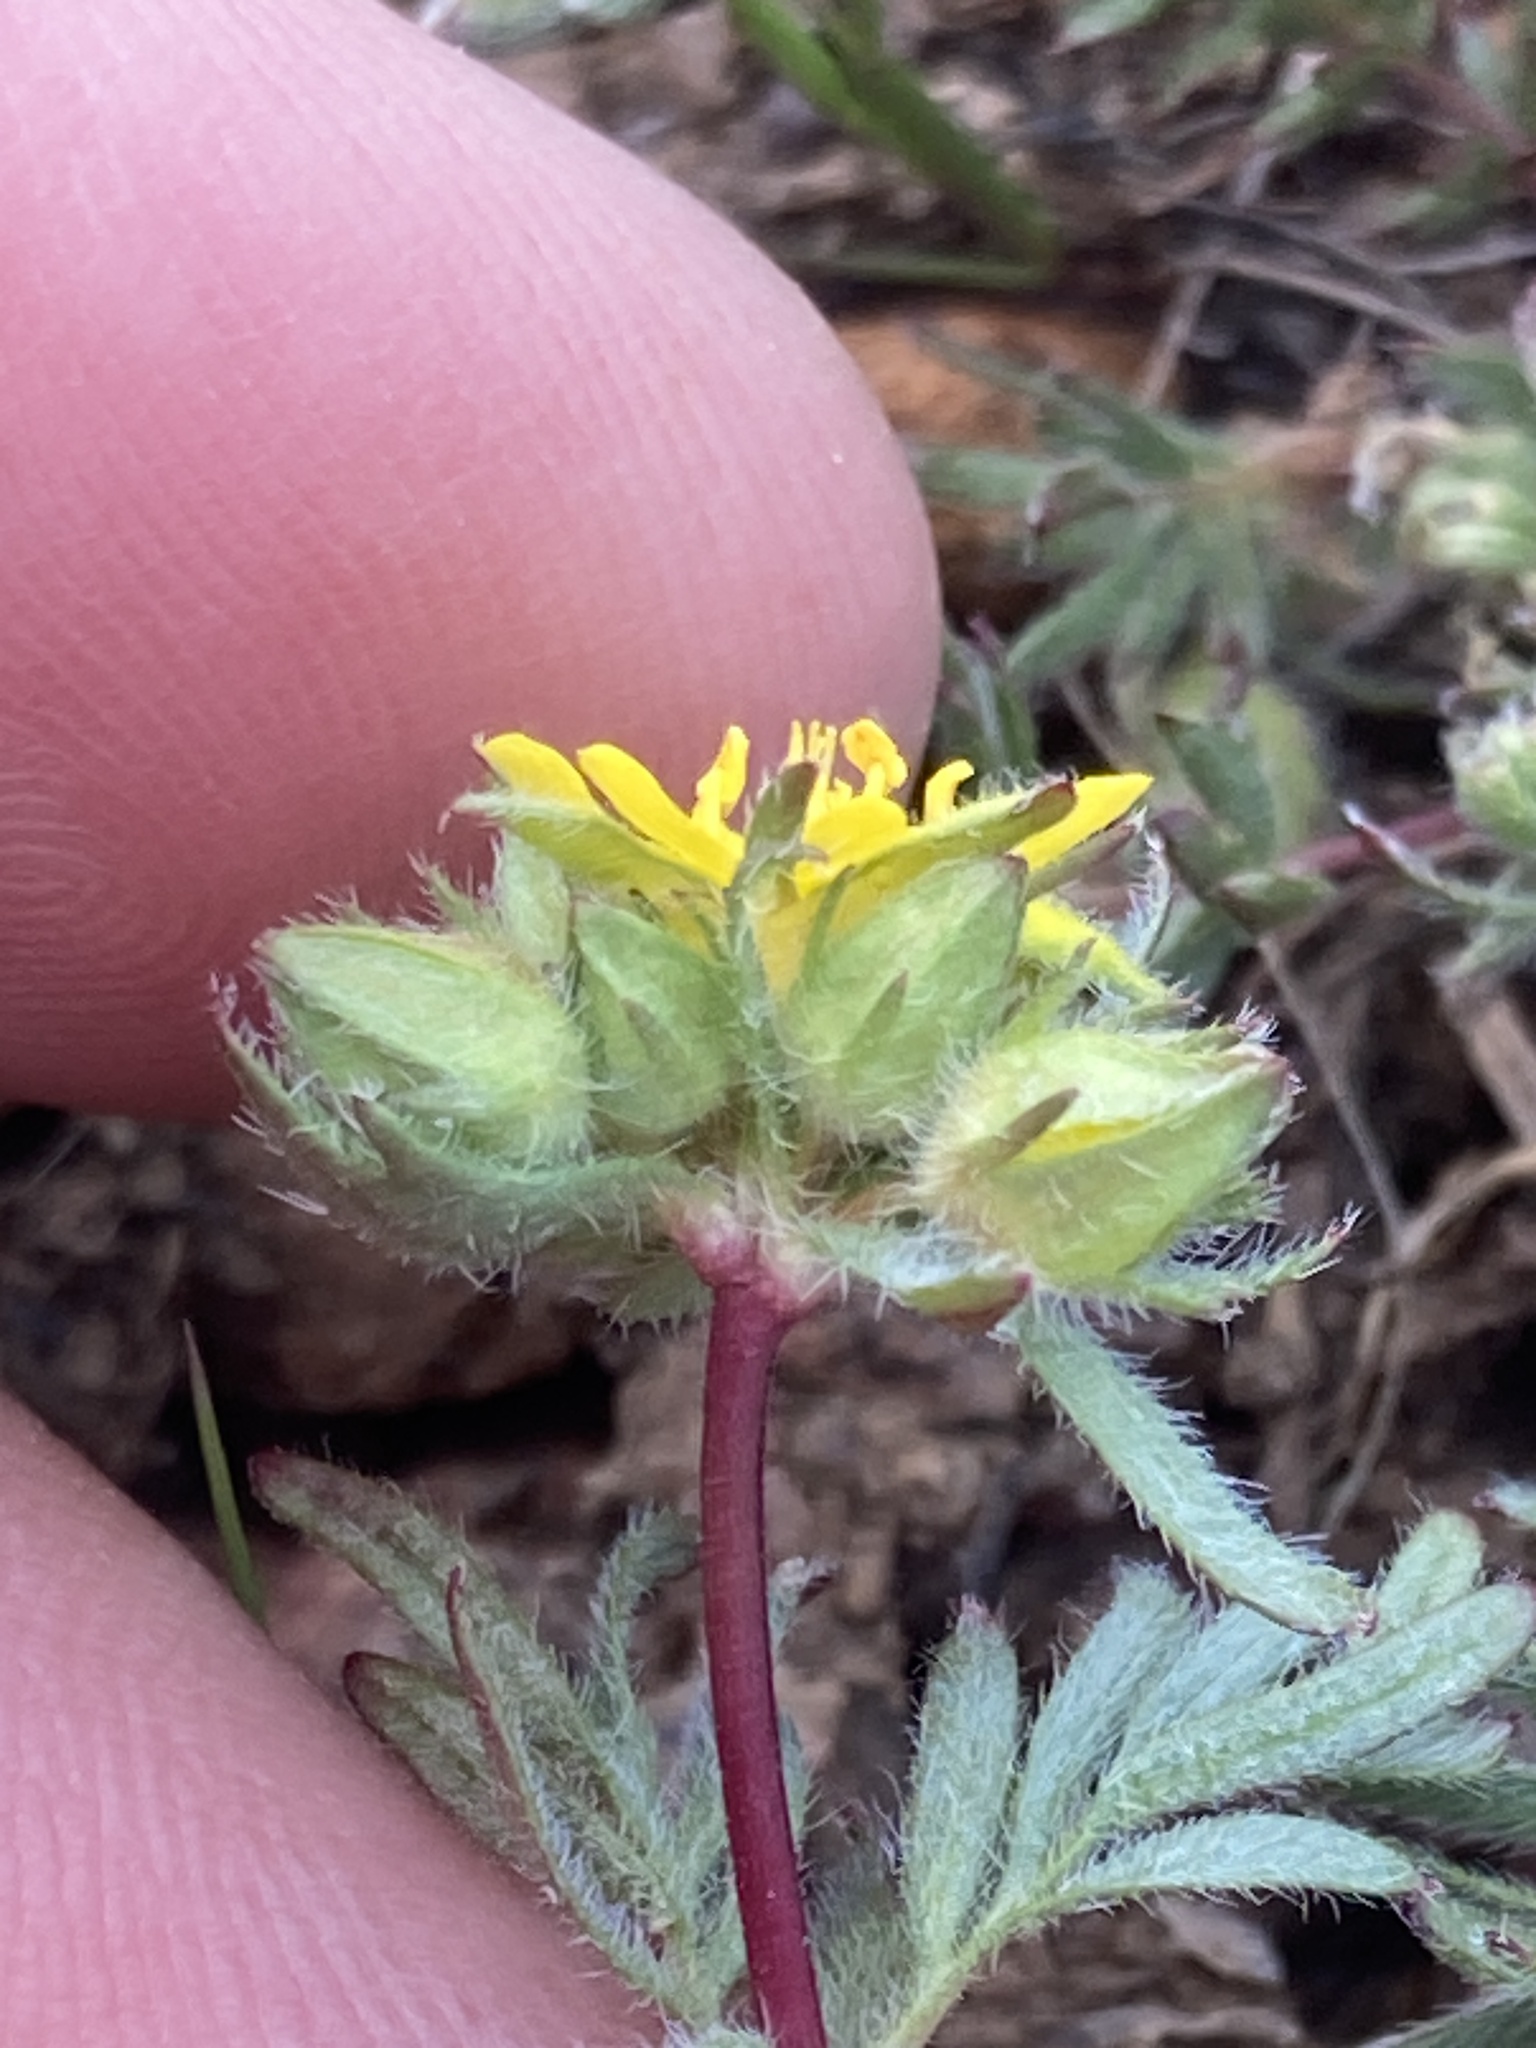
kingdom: Plantae
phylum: Tracheophyta
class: Magnoliopsida
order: Rosales
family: Rosaceae
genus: Potentilla
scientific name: Potentilla webberi
